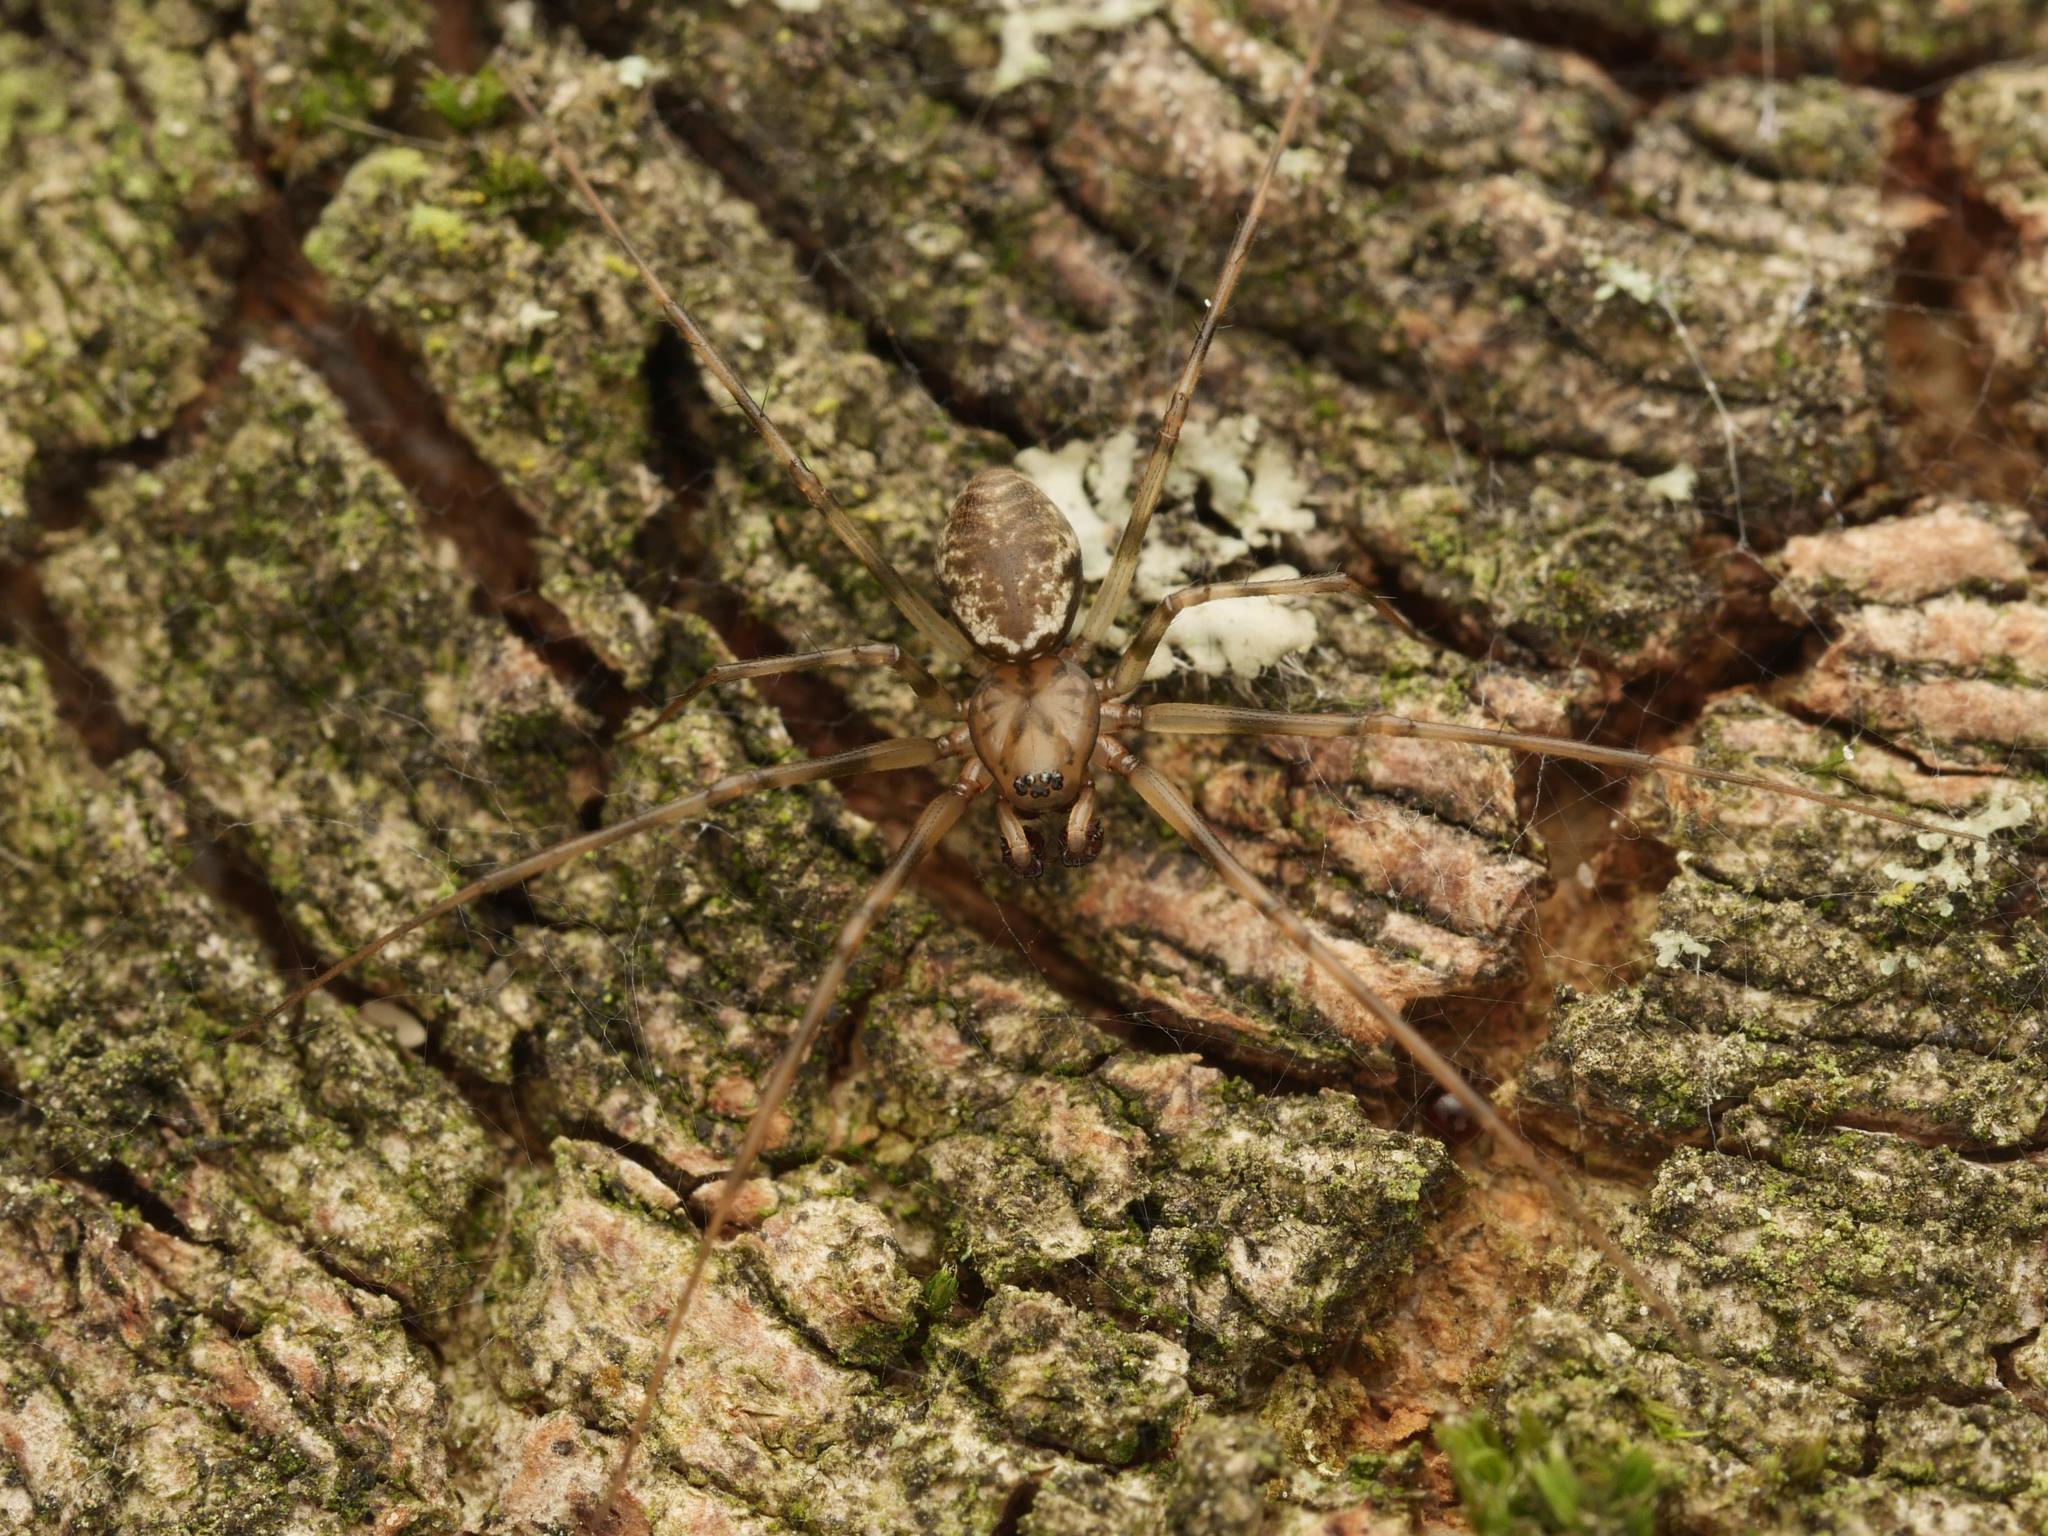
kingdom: Animalia
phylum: Arthropoda
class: Arachnida
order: Araneae
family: Linyphiidae
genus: Drapetisca
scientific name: Drapetisca socialis
